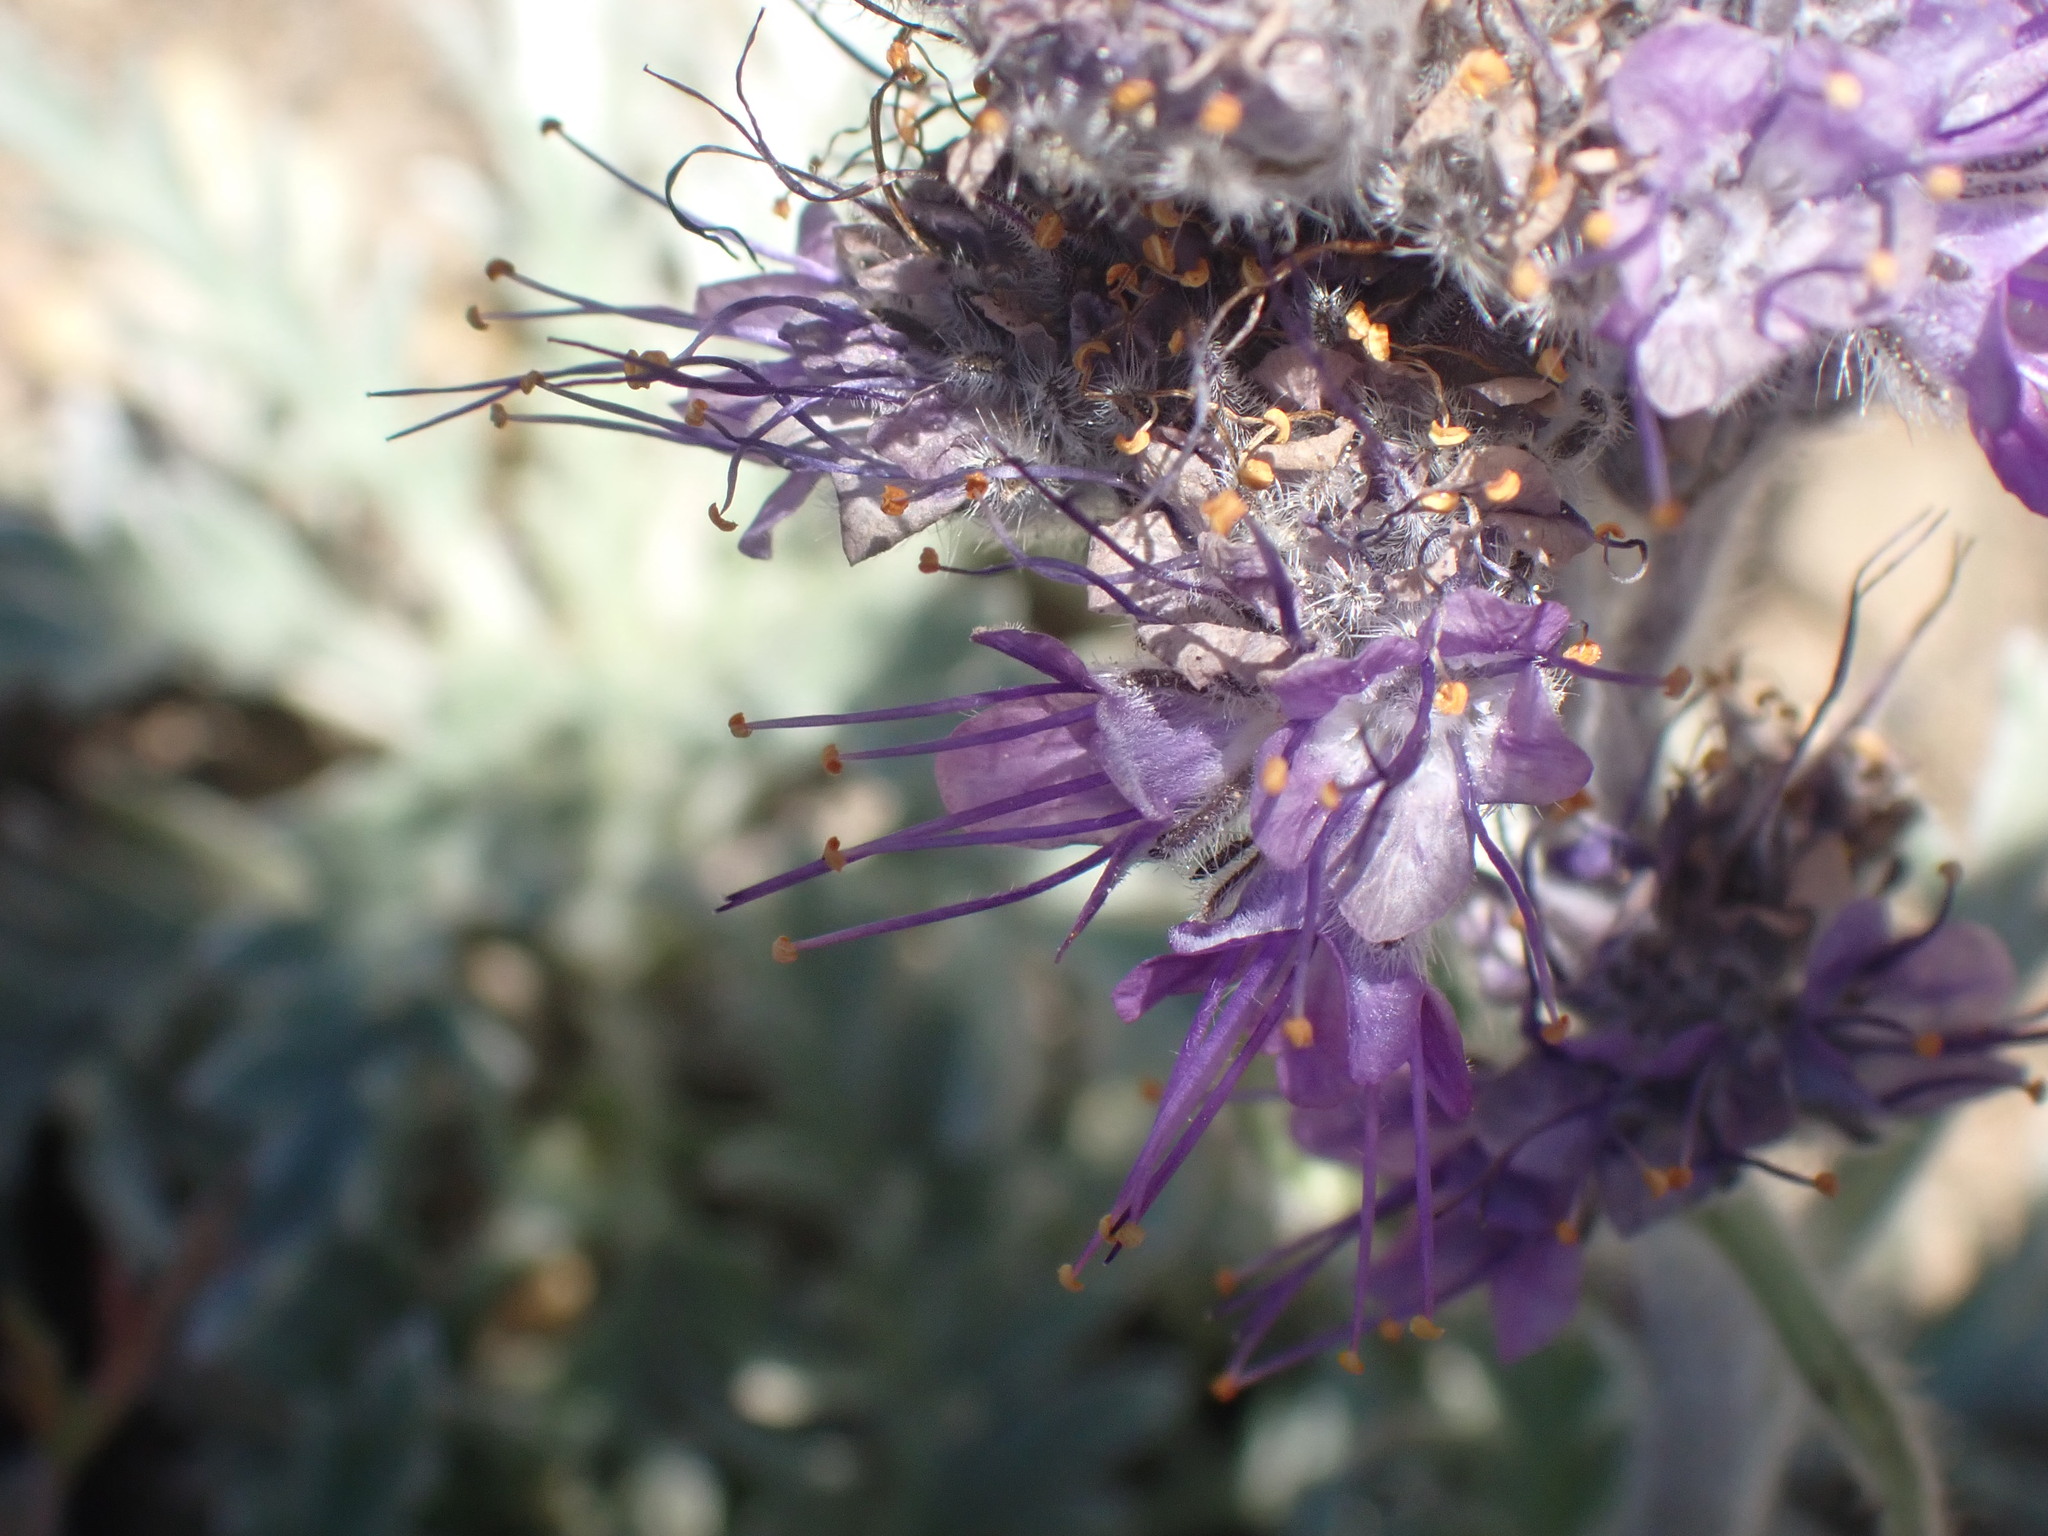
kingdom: Plantae
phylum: Tracheophyta
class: Magnoliopsida
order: Boraginales
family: Hydrophyllaceae
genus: Phacelia
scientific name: Phacelia sericea
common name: Silky phacelia
